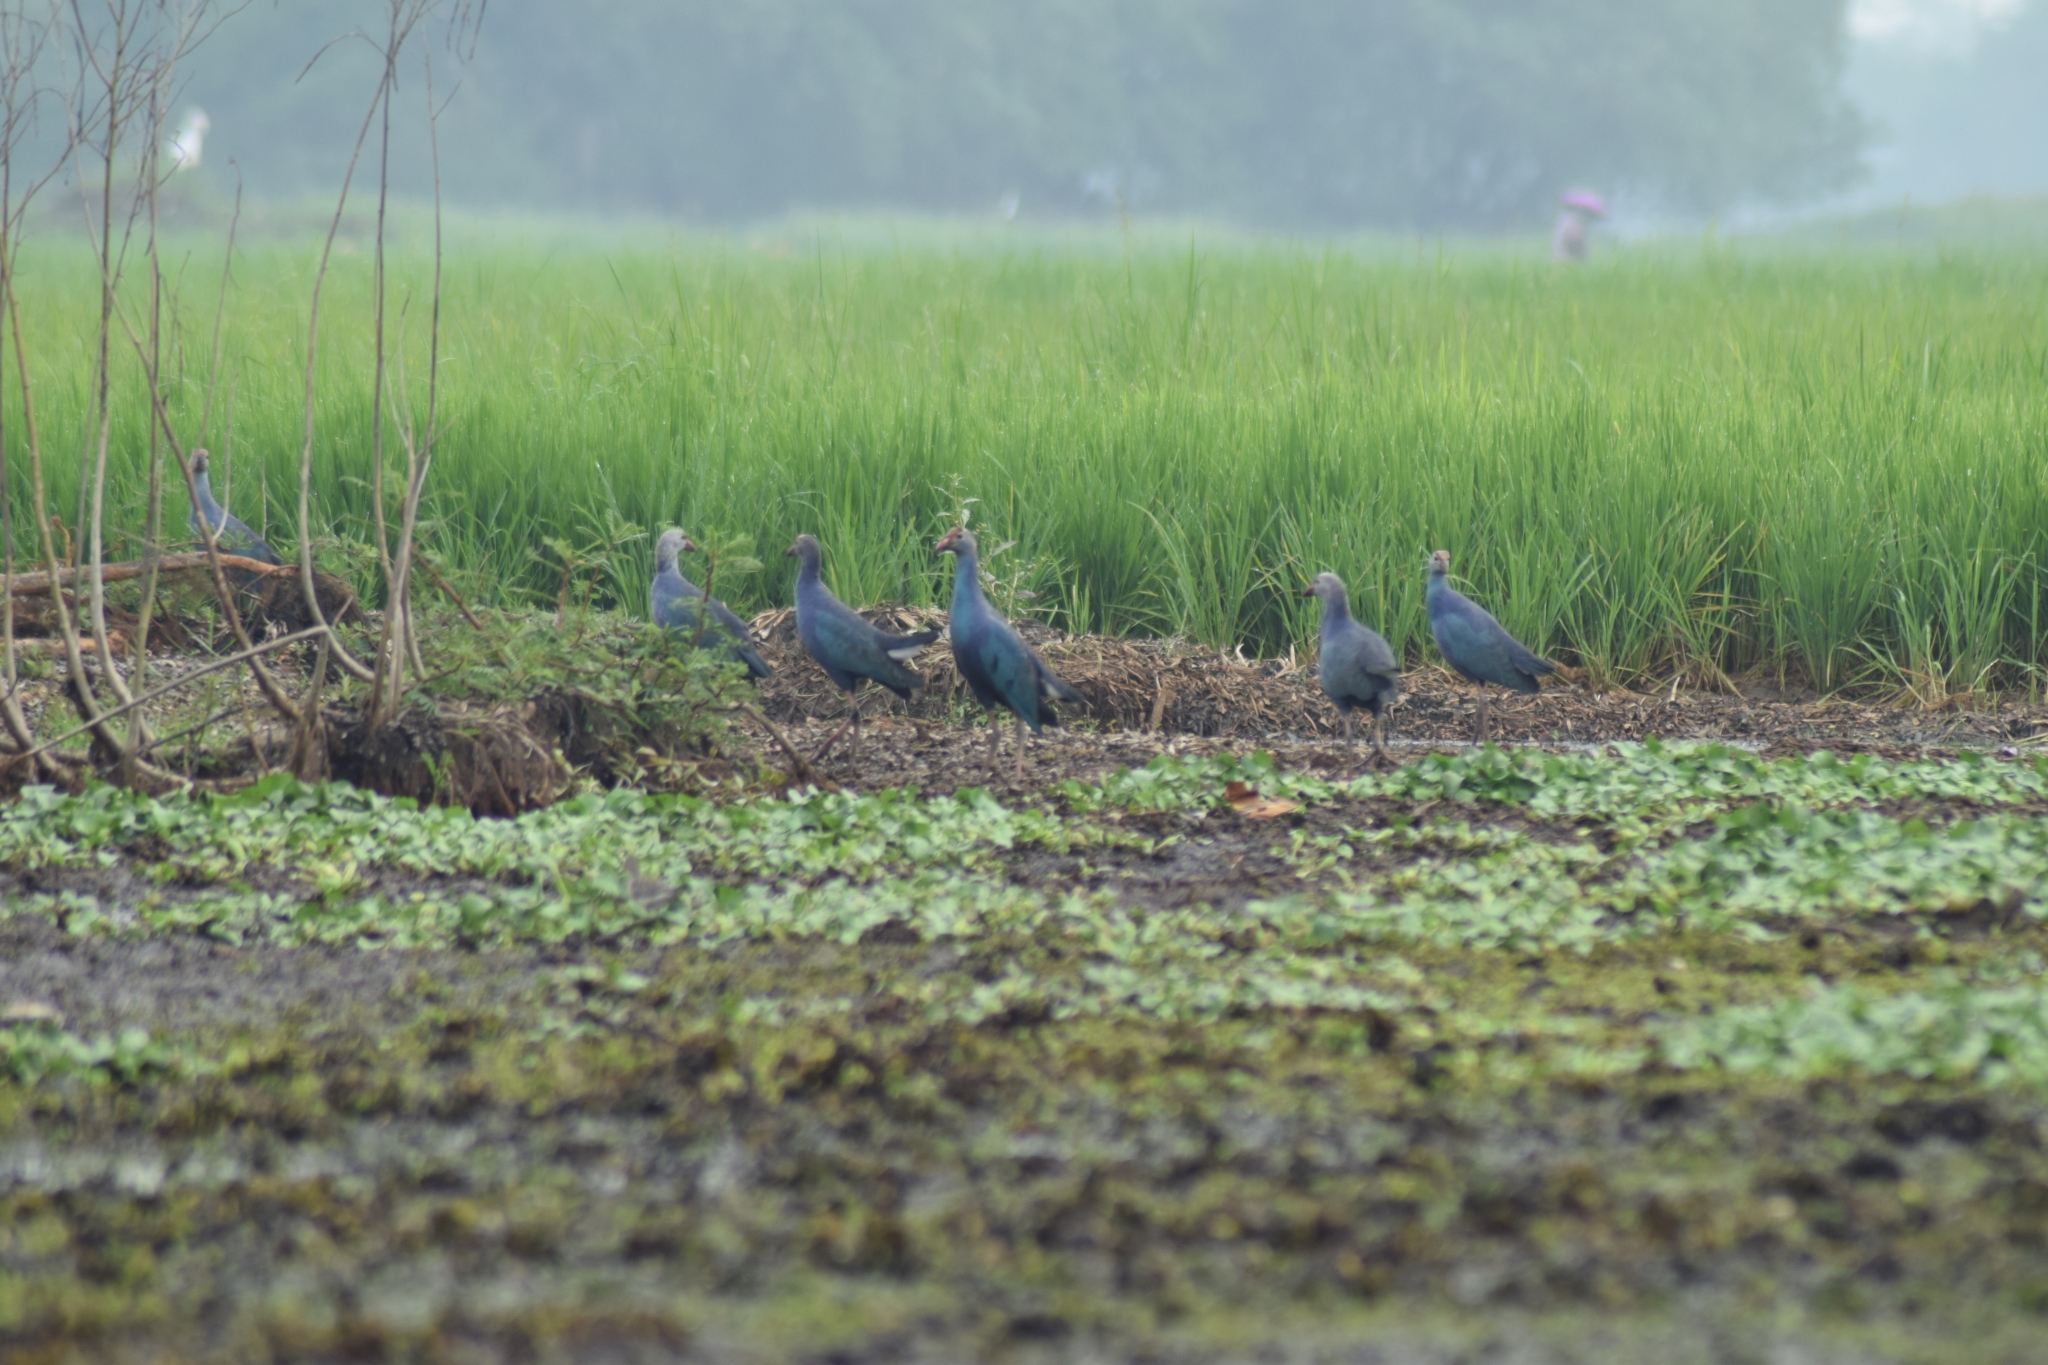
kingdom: Animalia
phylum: Chordata
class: Aves
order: Gruiformes
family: Rallidae
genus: Porphyrio
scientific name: Porphyrio porphyrio
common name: Purple swamphen
